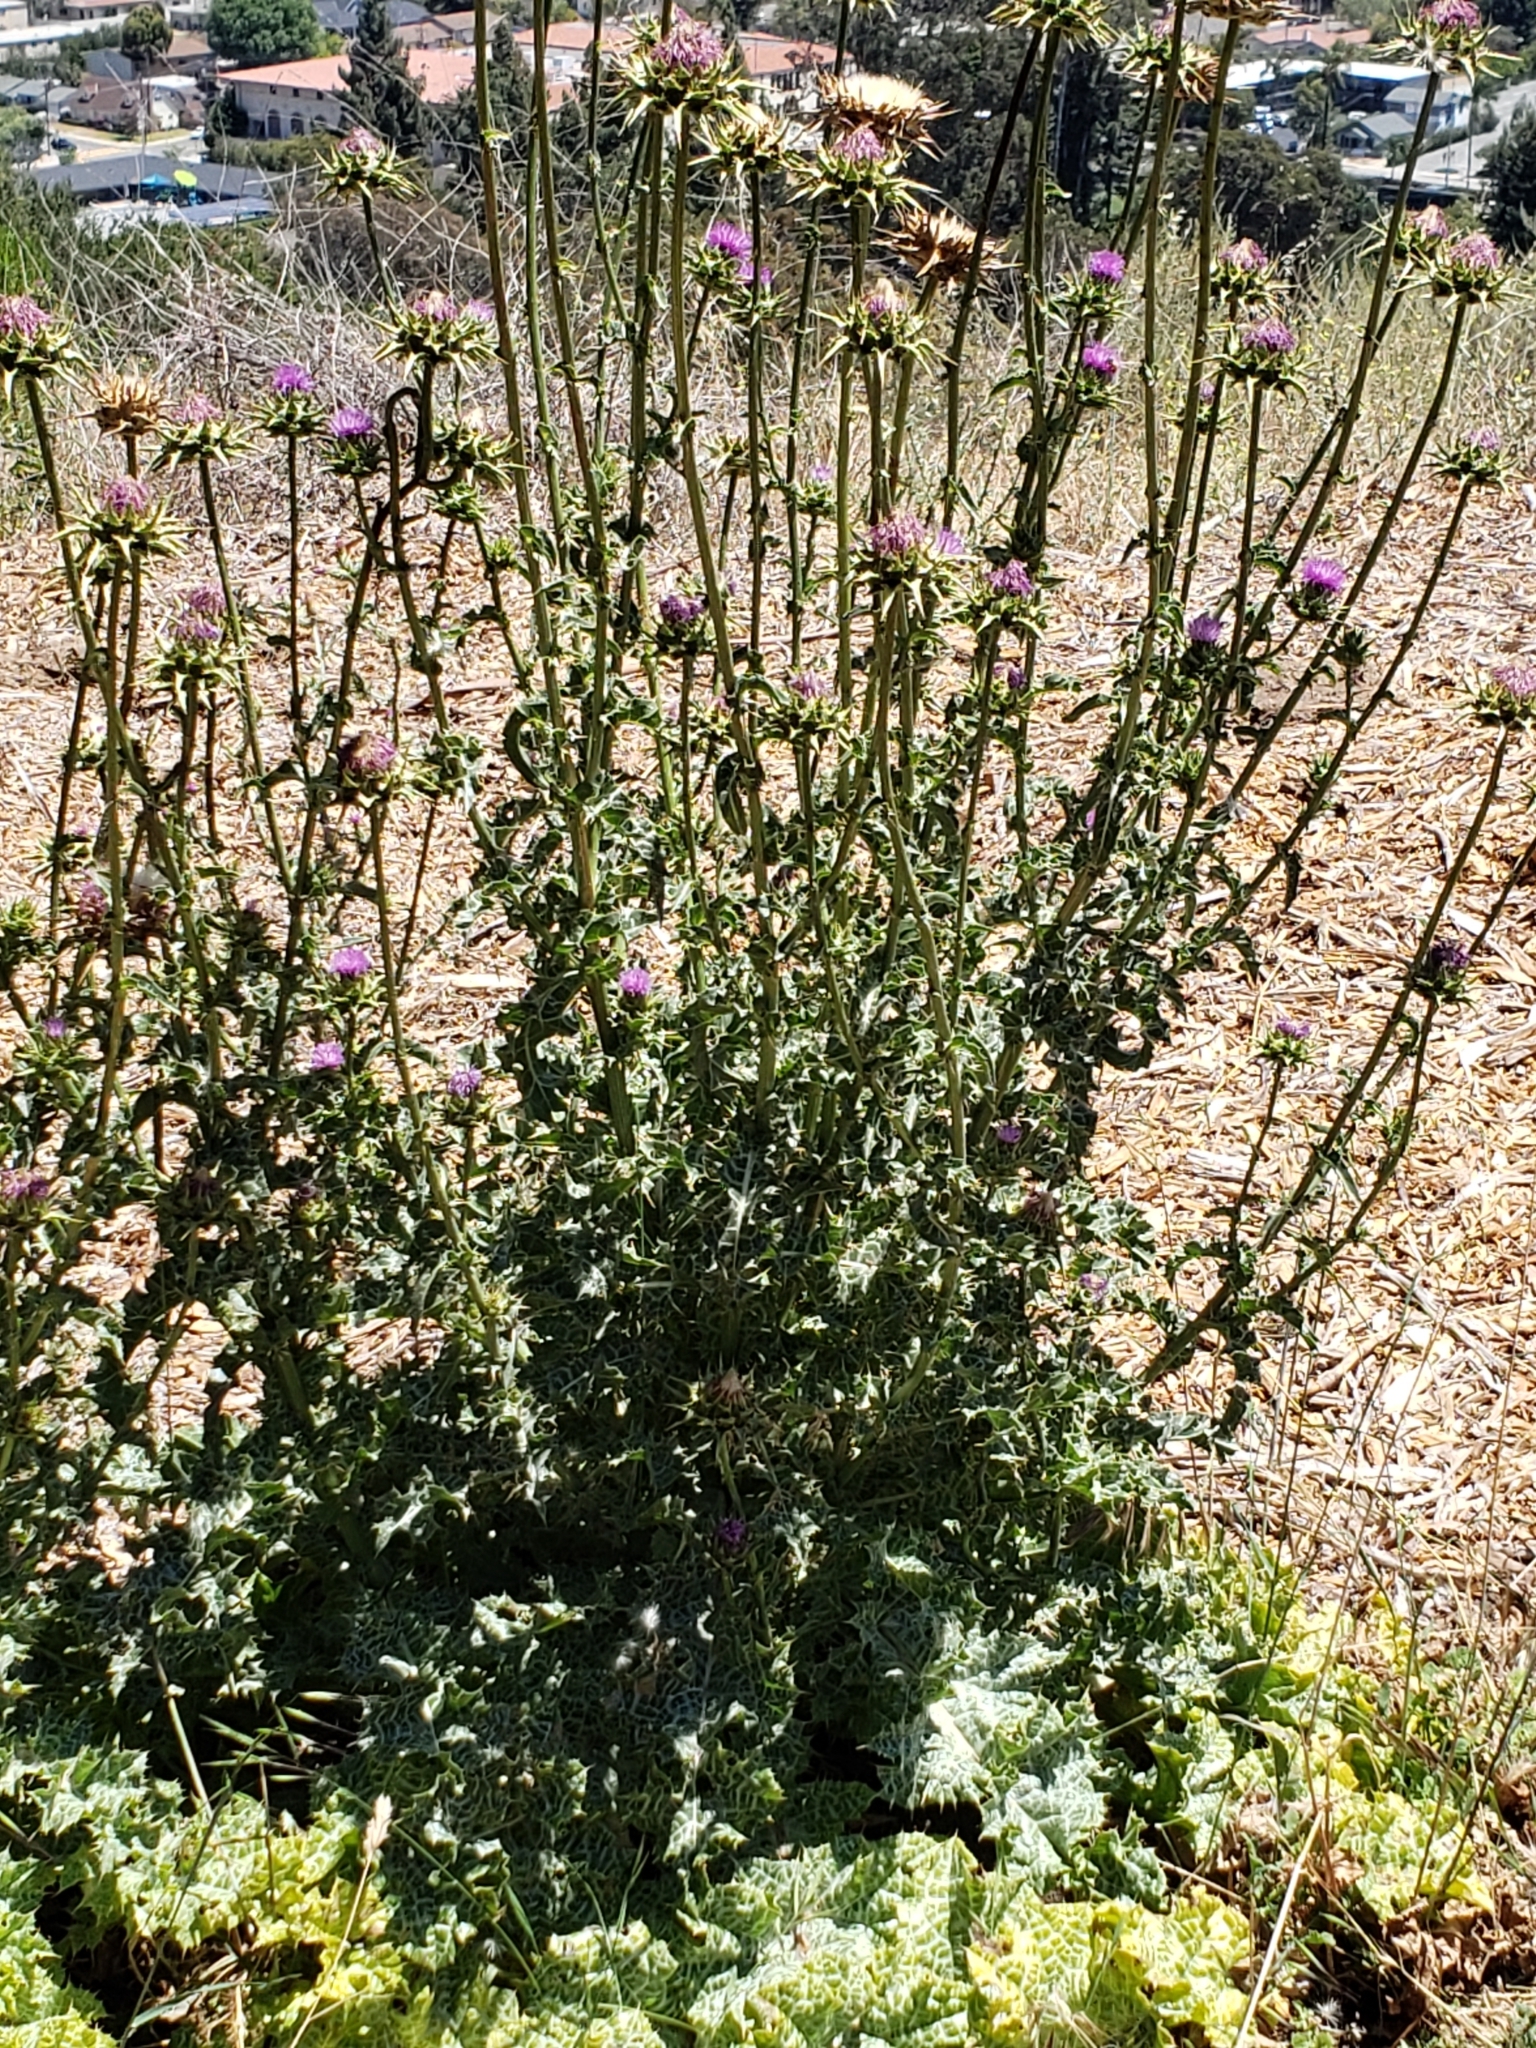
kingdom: Plantae
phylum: Tracheophyta
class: Magnoliopsida
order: Asterales
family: Asteraceae
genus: Silybum
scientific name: Silybum marianum
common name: Milk thistle
